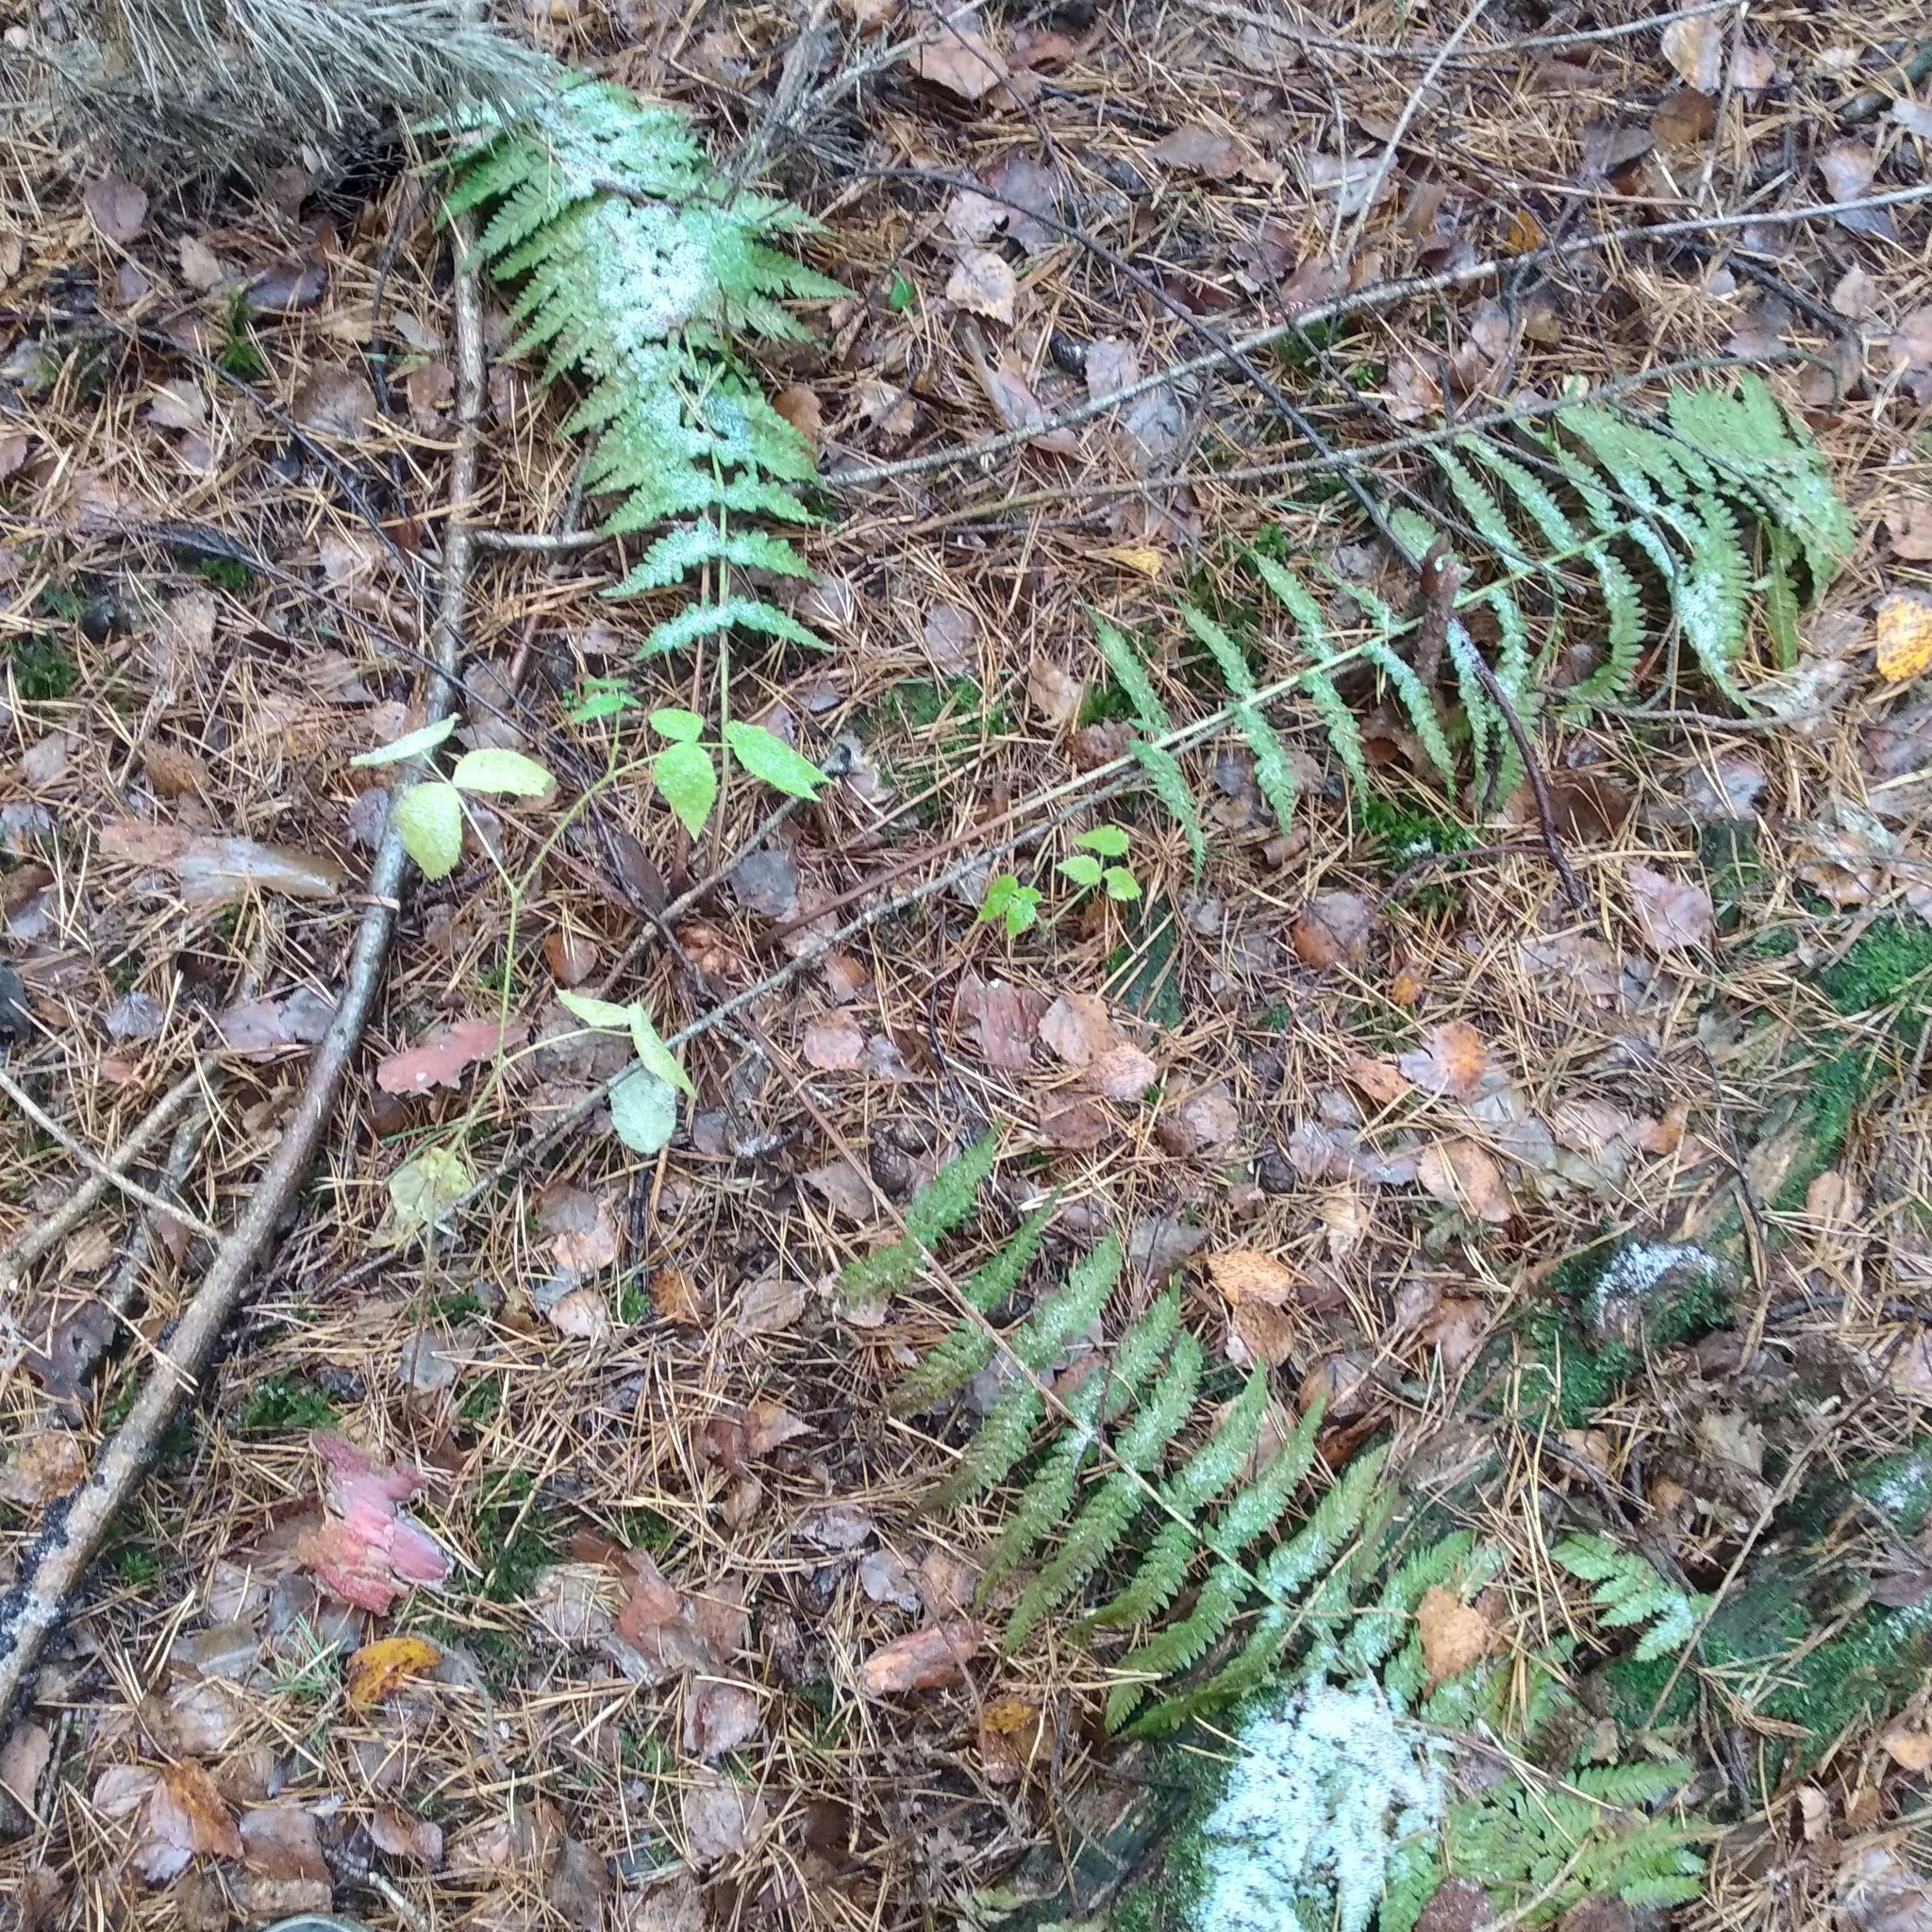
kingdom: Plantae
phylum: Tracheophyta
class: Polypodiopsida
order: Polypodiales
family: Dryopteridaceae
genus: Dryopteris
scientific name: Dryopteris filix-mas
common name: Male fern
